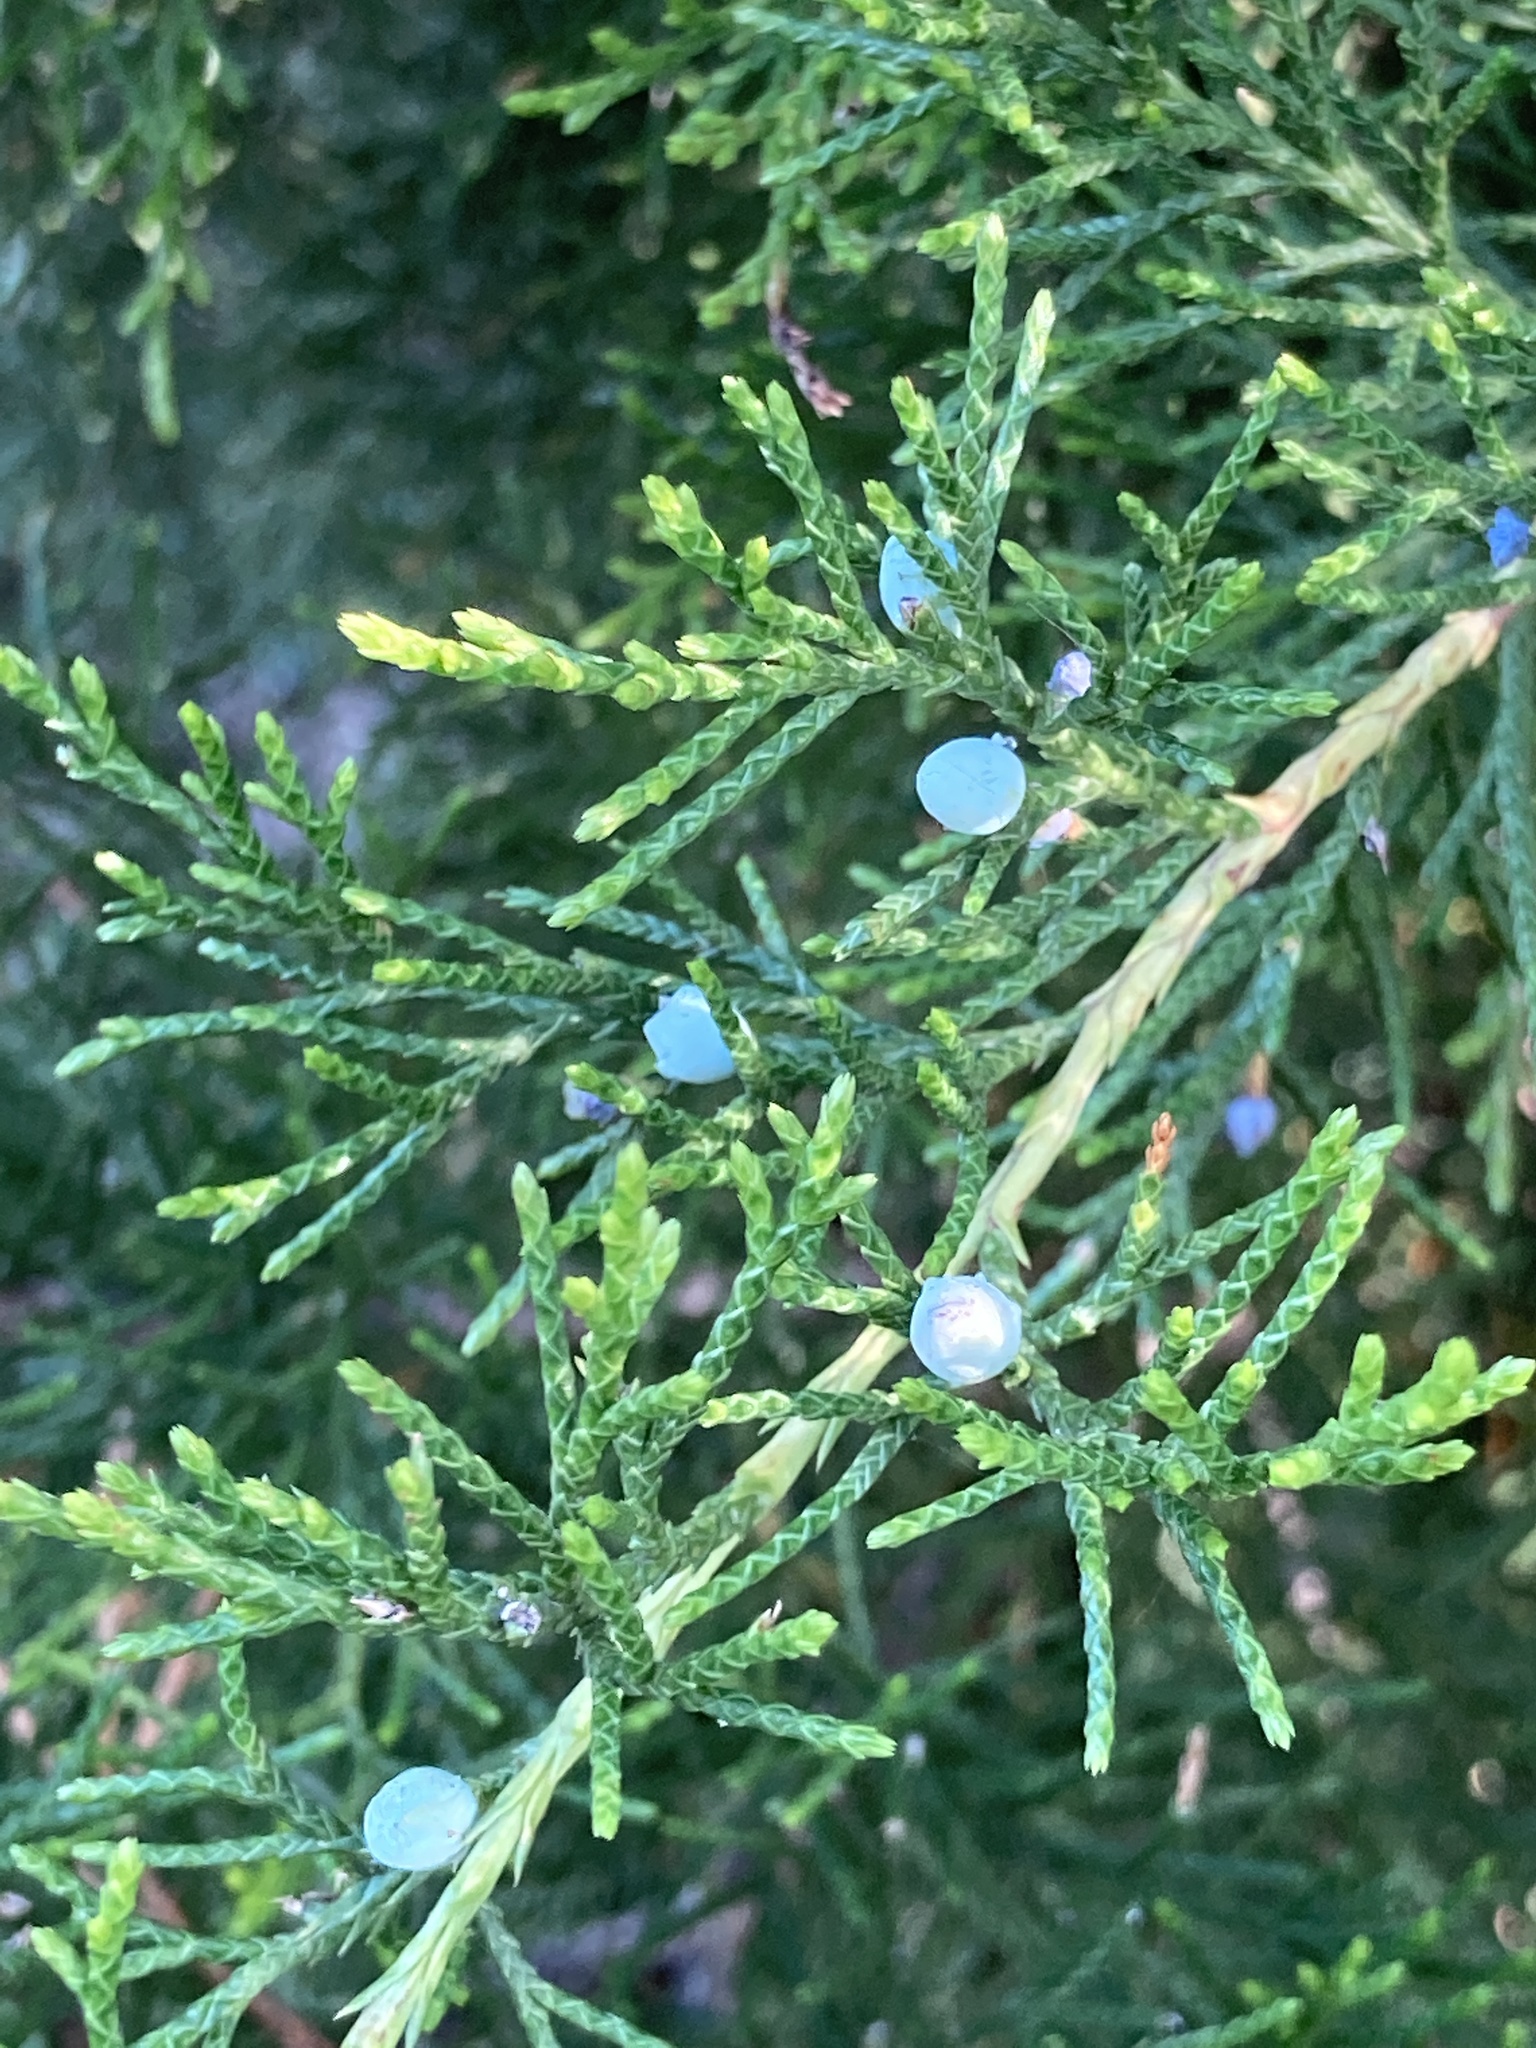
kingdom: Plantae
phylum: Tracheophyta
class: Pinopsida
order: Pinales
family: Cupressaceae
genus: Juniperus
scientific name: Juniperus virginiana
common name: Red juniper
